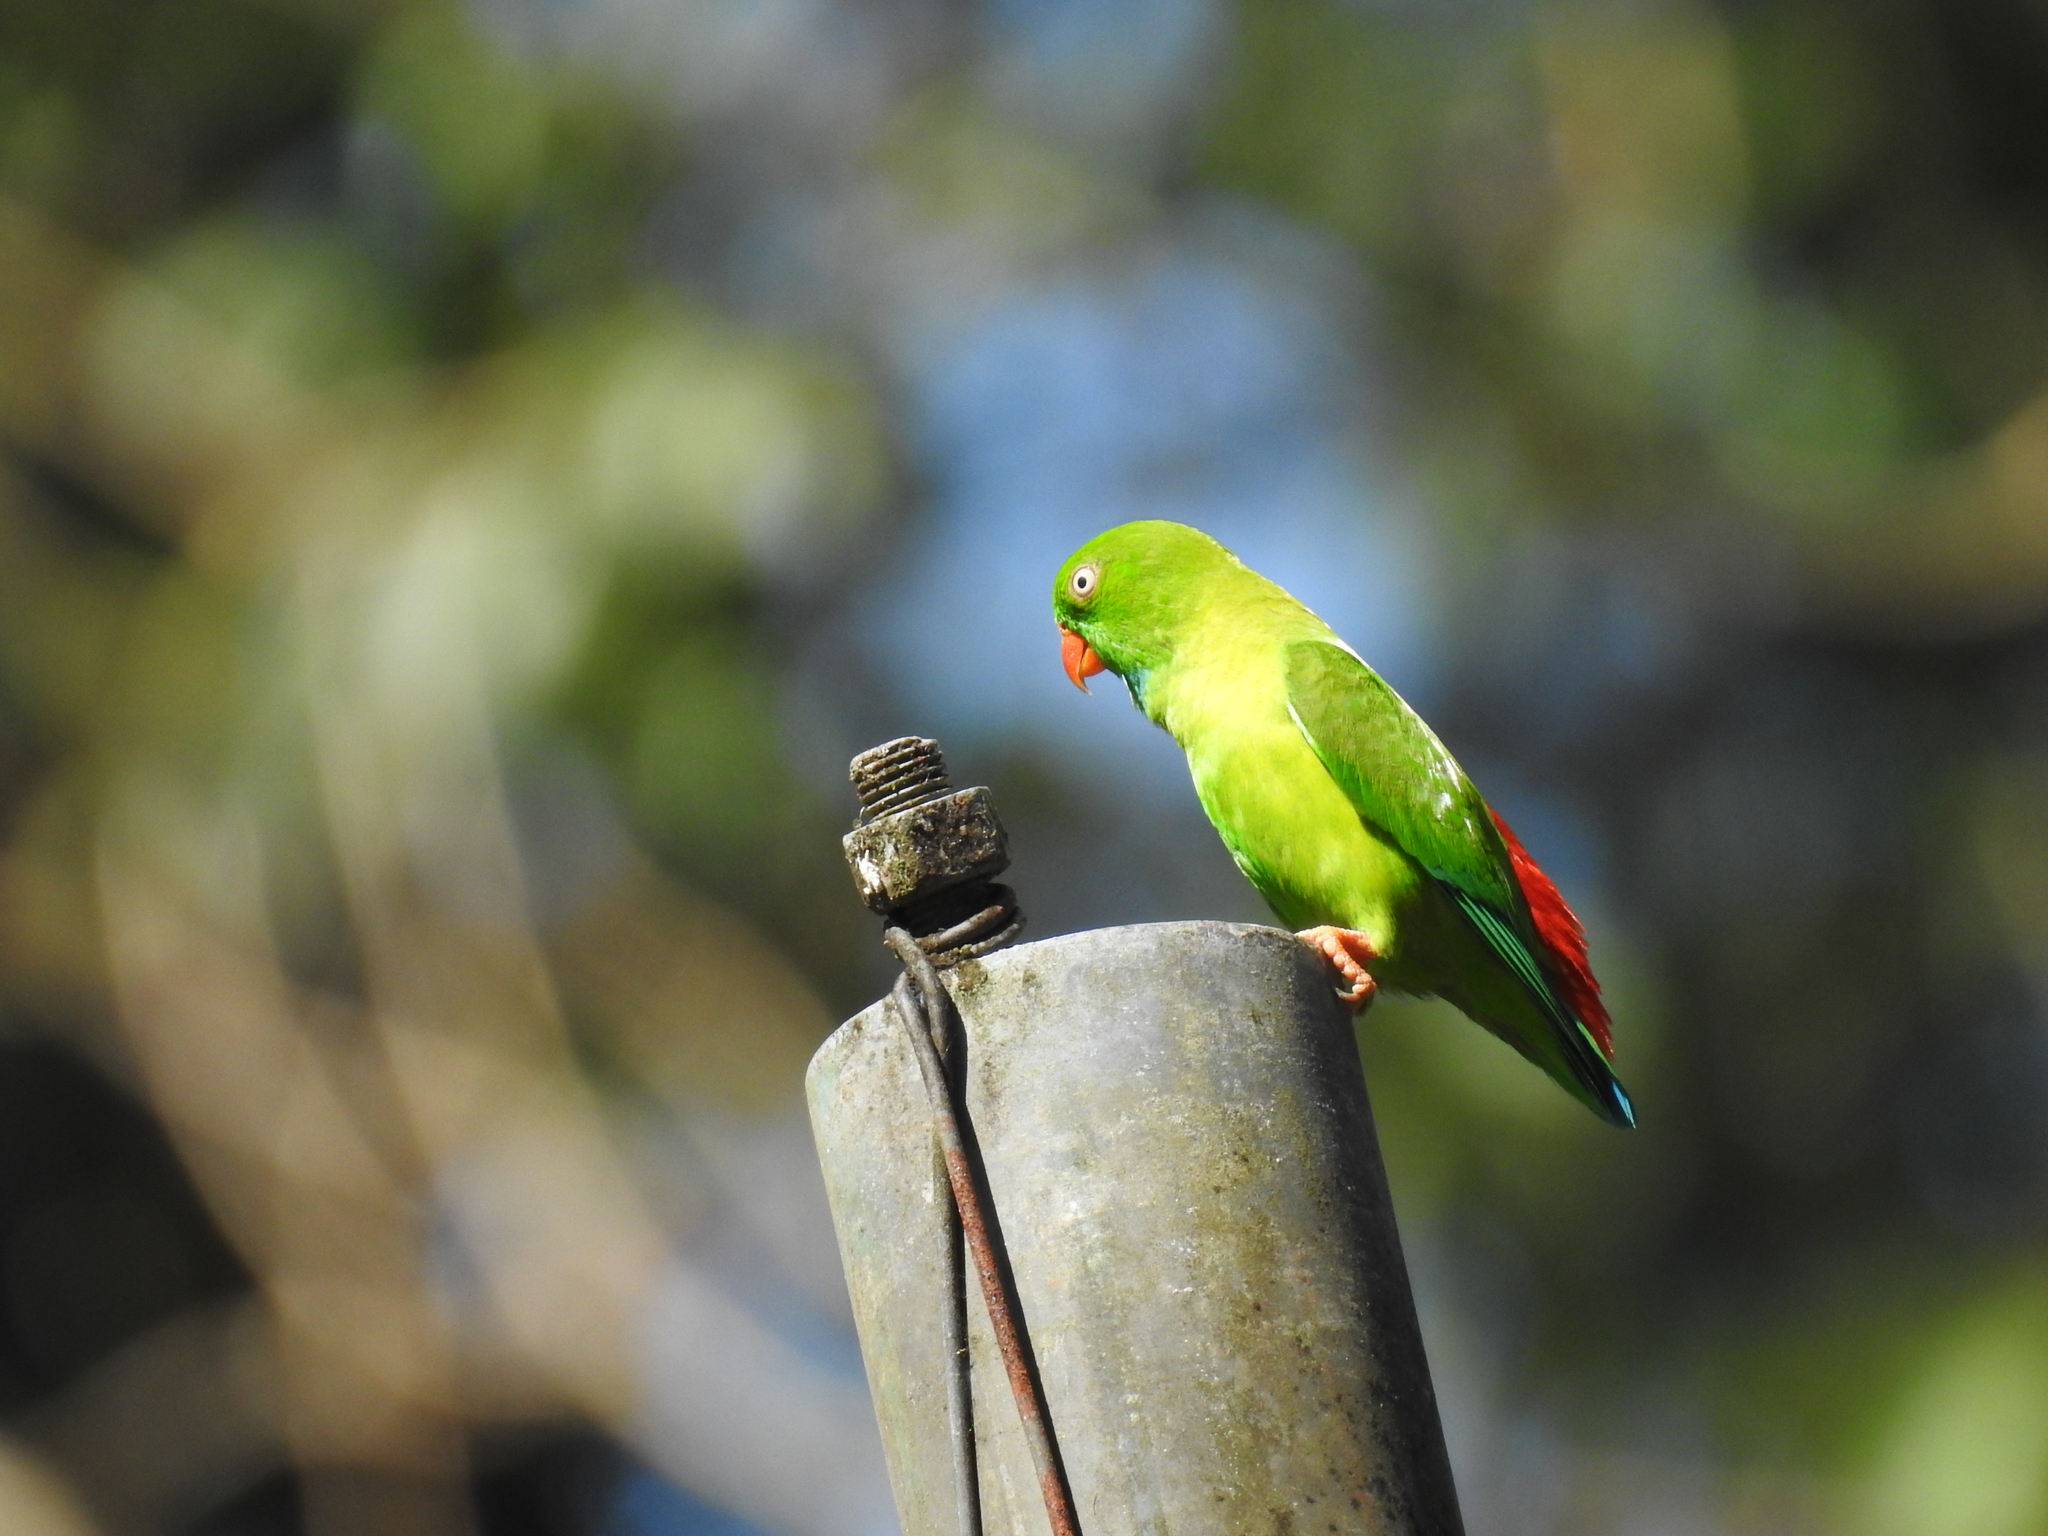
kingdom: Animalia
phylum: Chordata
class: Aves
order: Psittaciformes
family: Psittacidae
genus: Loriculus
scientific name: Loriculus vernalis
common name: Vernal hanging parrot
